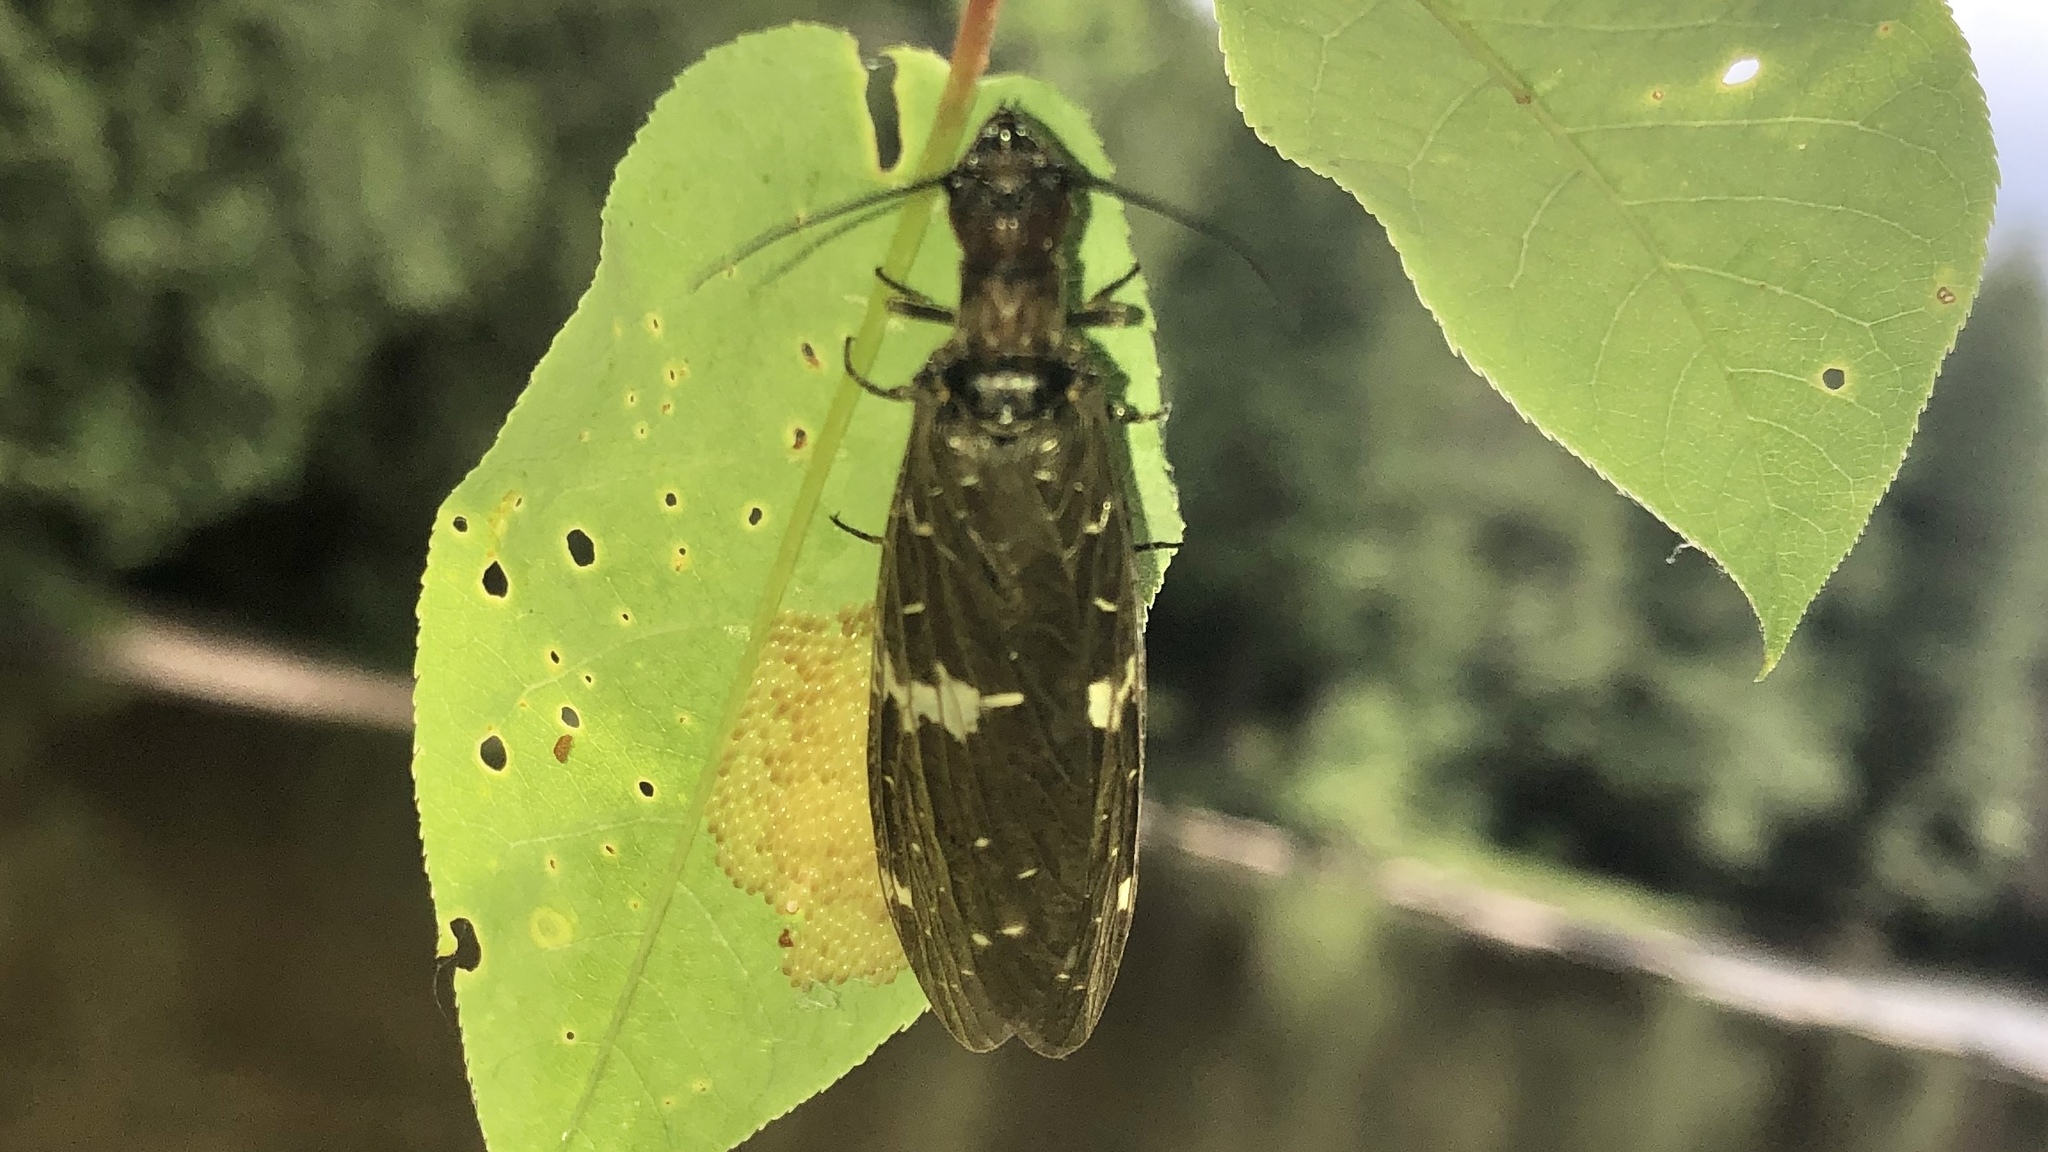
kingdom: Animalia
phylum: Arthropoda
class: Insecta
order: Megaloptera
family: Corydalidae
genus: Nigronia
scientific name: Nigronia serricornis
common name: Serrate dark fishfly
